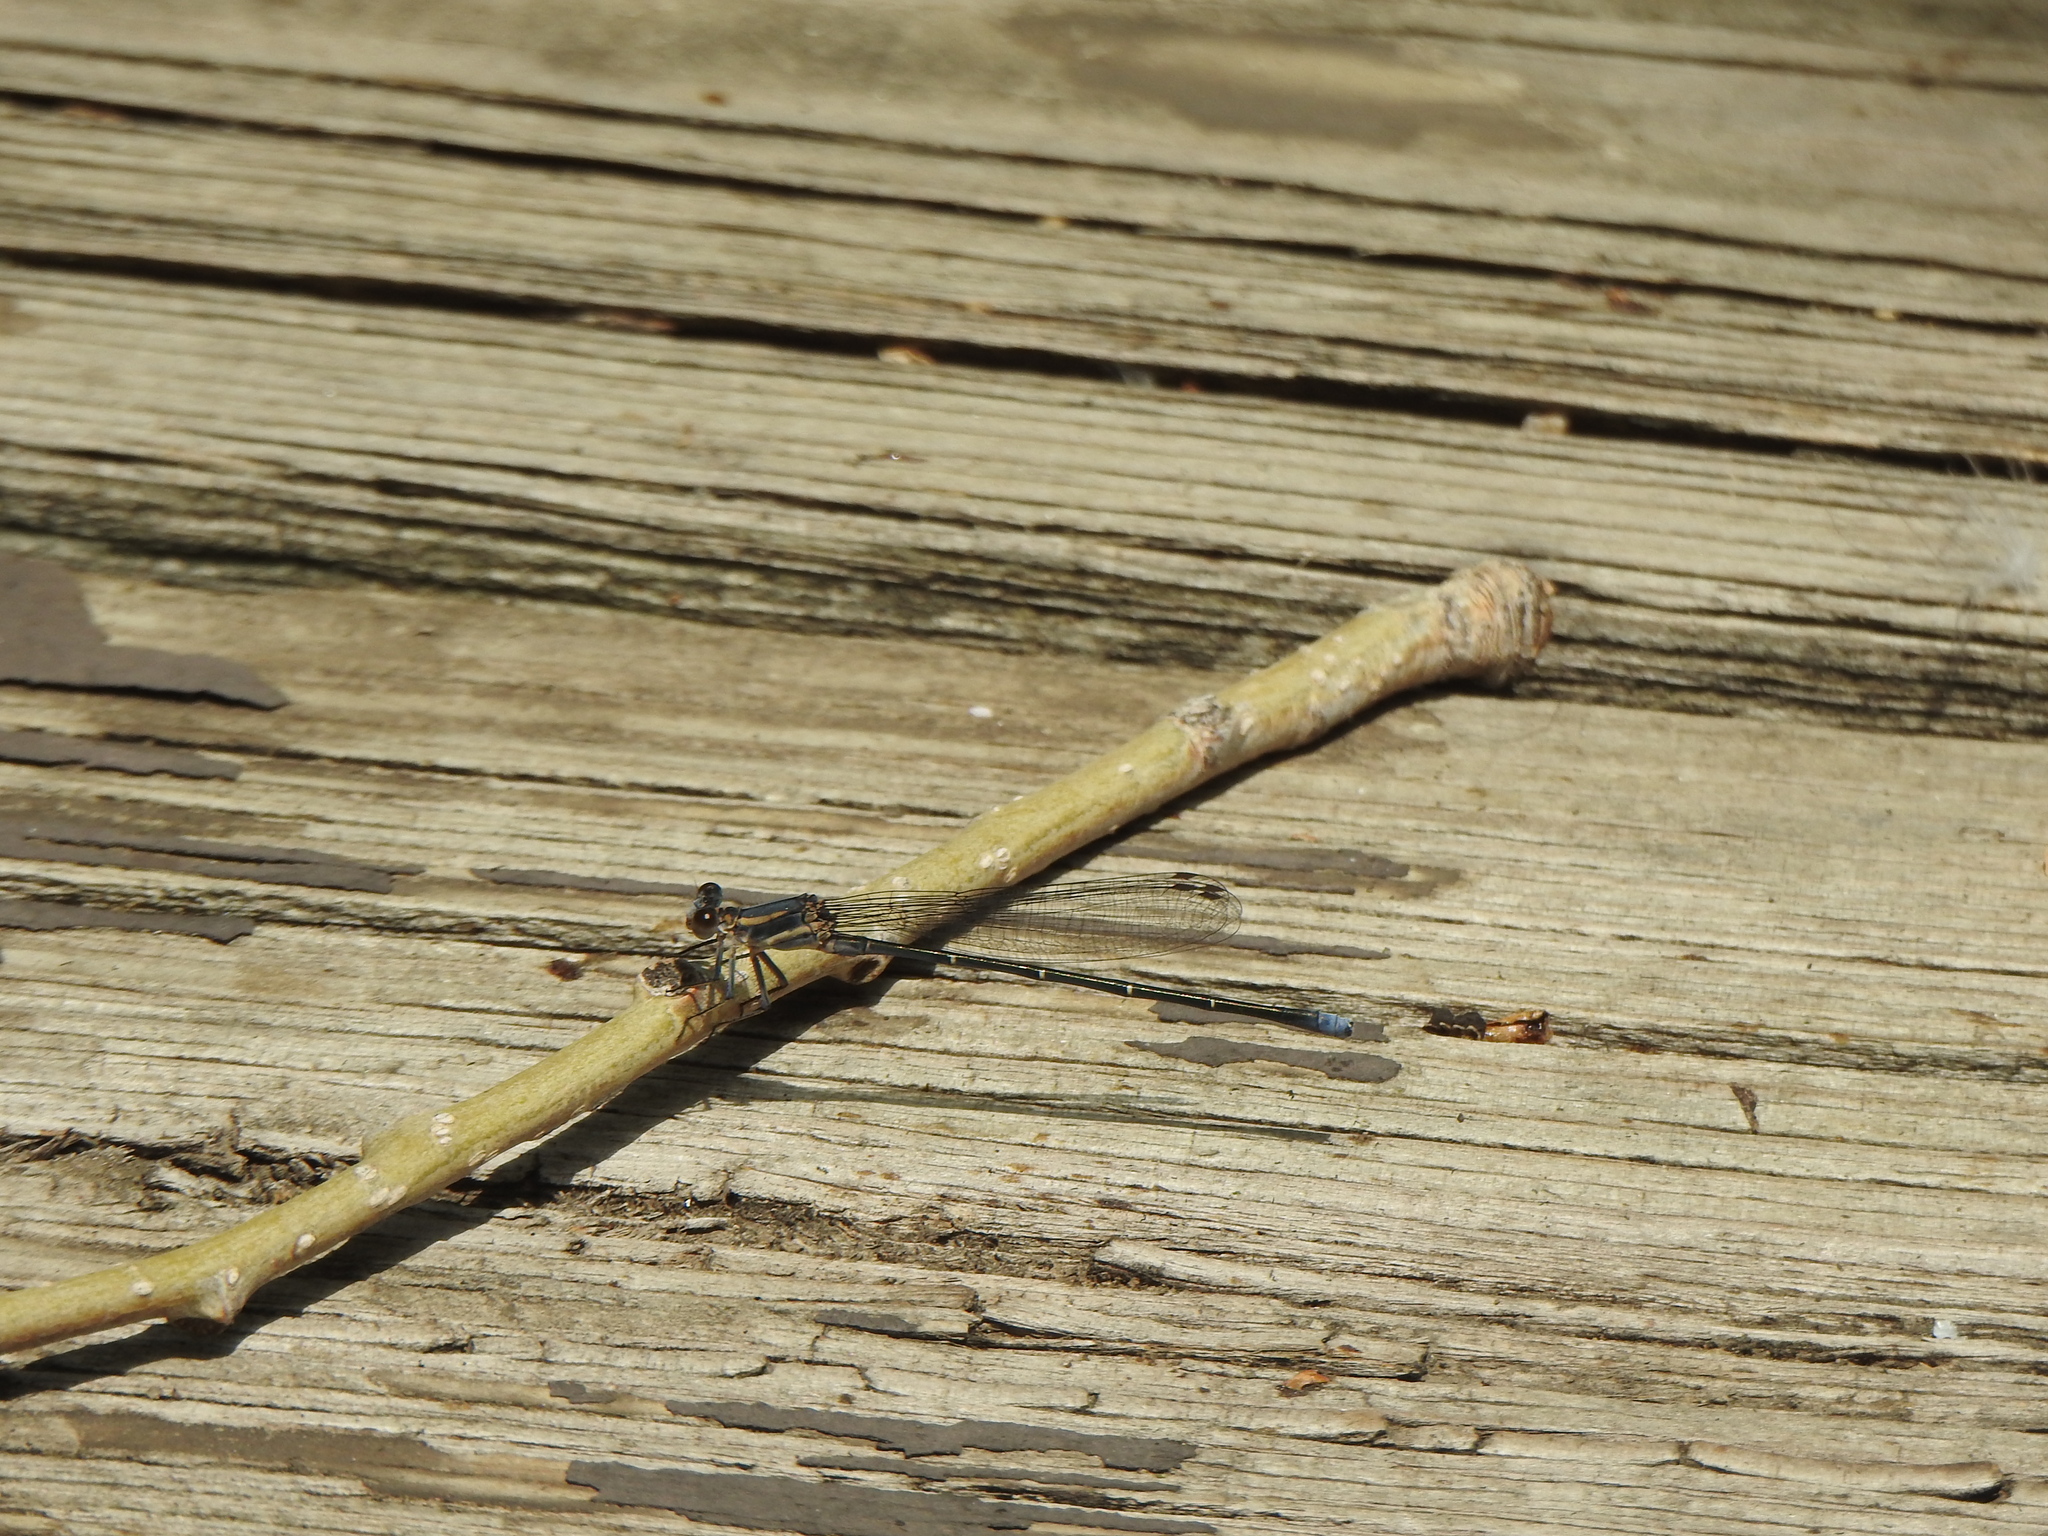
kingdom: Animalia
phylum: Arthropoda
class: Insecta
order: Odonata
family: Coenagrionidae
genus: Argia
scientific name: Argia moesta
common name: Powdered dancer
